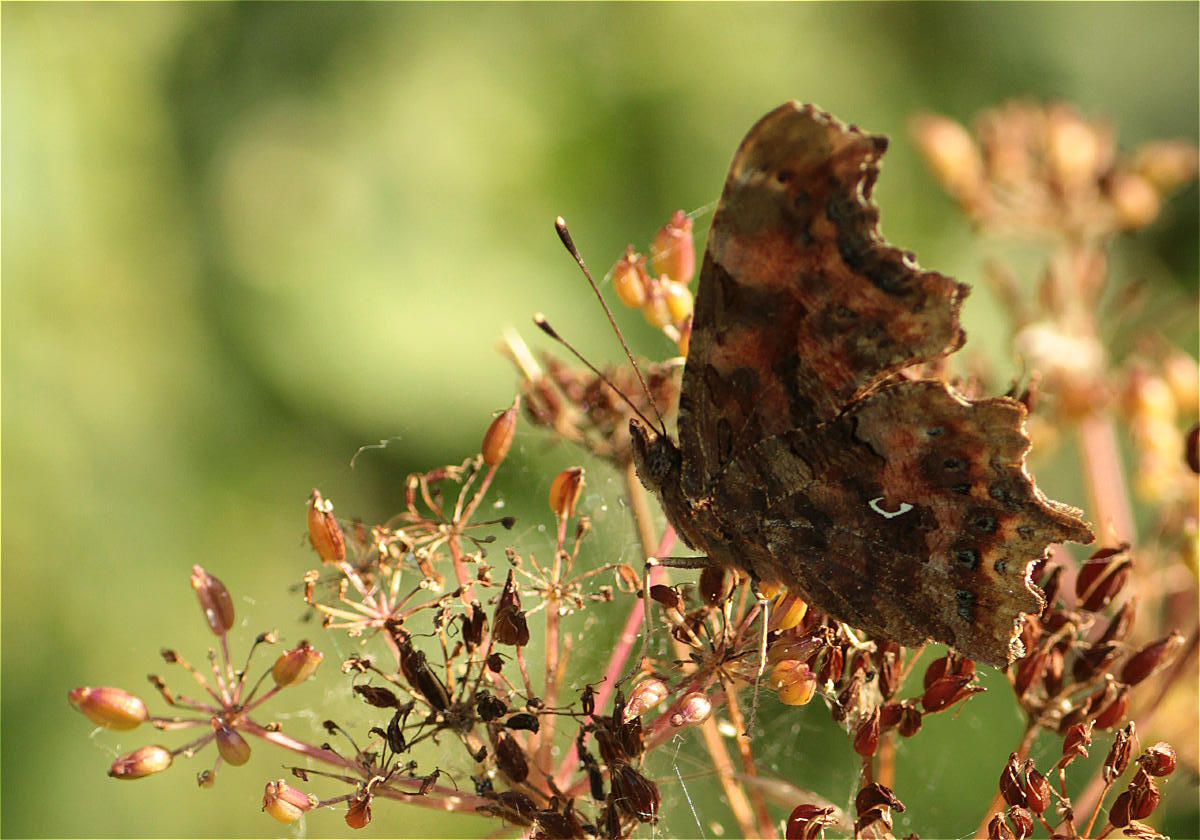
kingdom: Animalia
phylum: Arthropoda
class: Insecta
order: Lepidoptera
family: Nymphalidae
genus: Polygonia
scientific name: Polygonia c-album
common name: Comma
